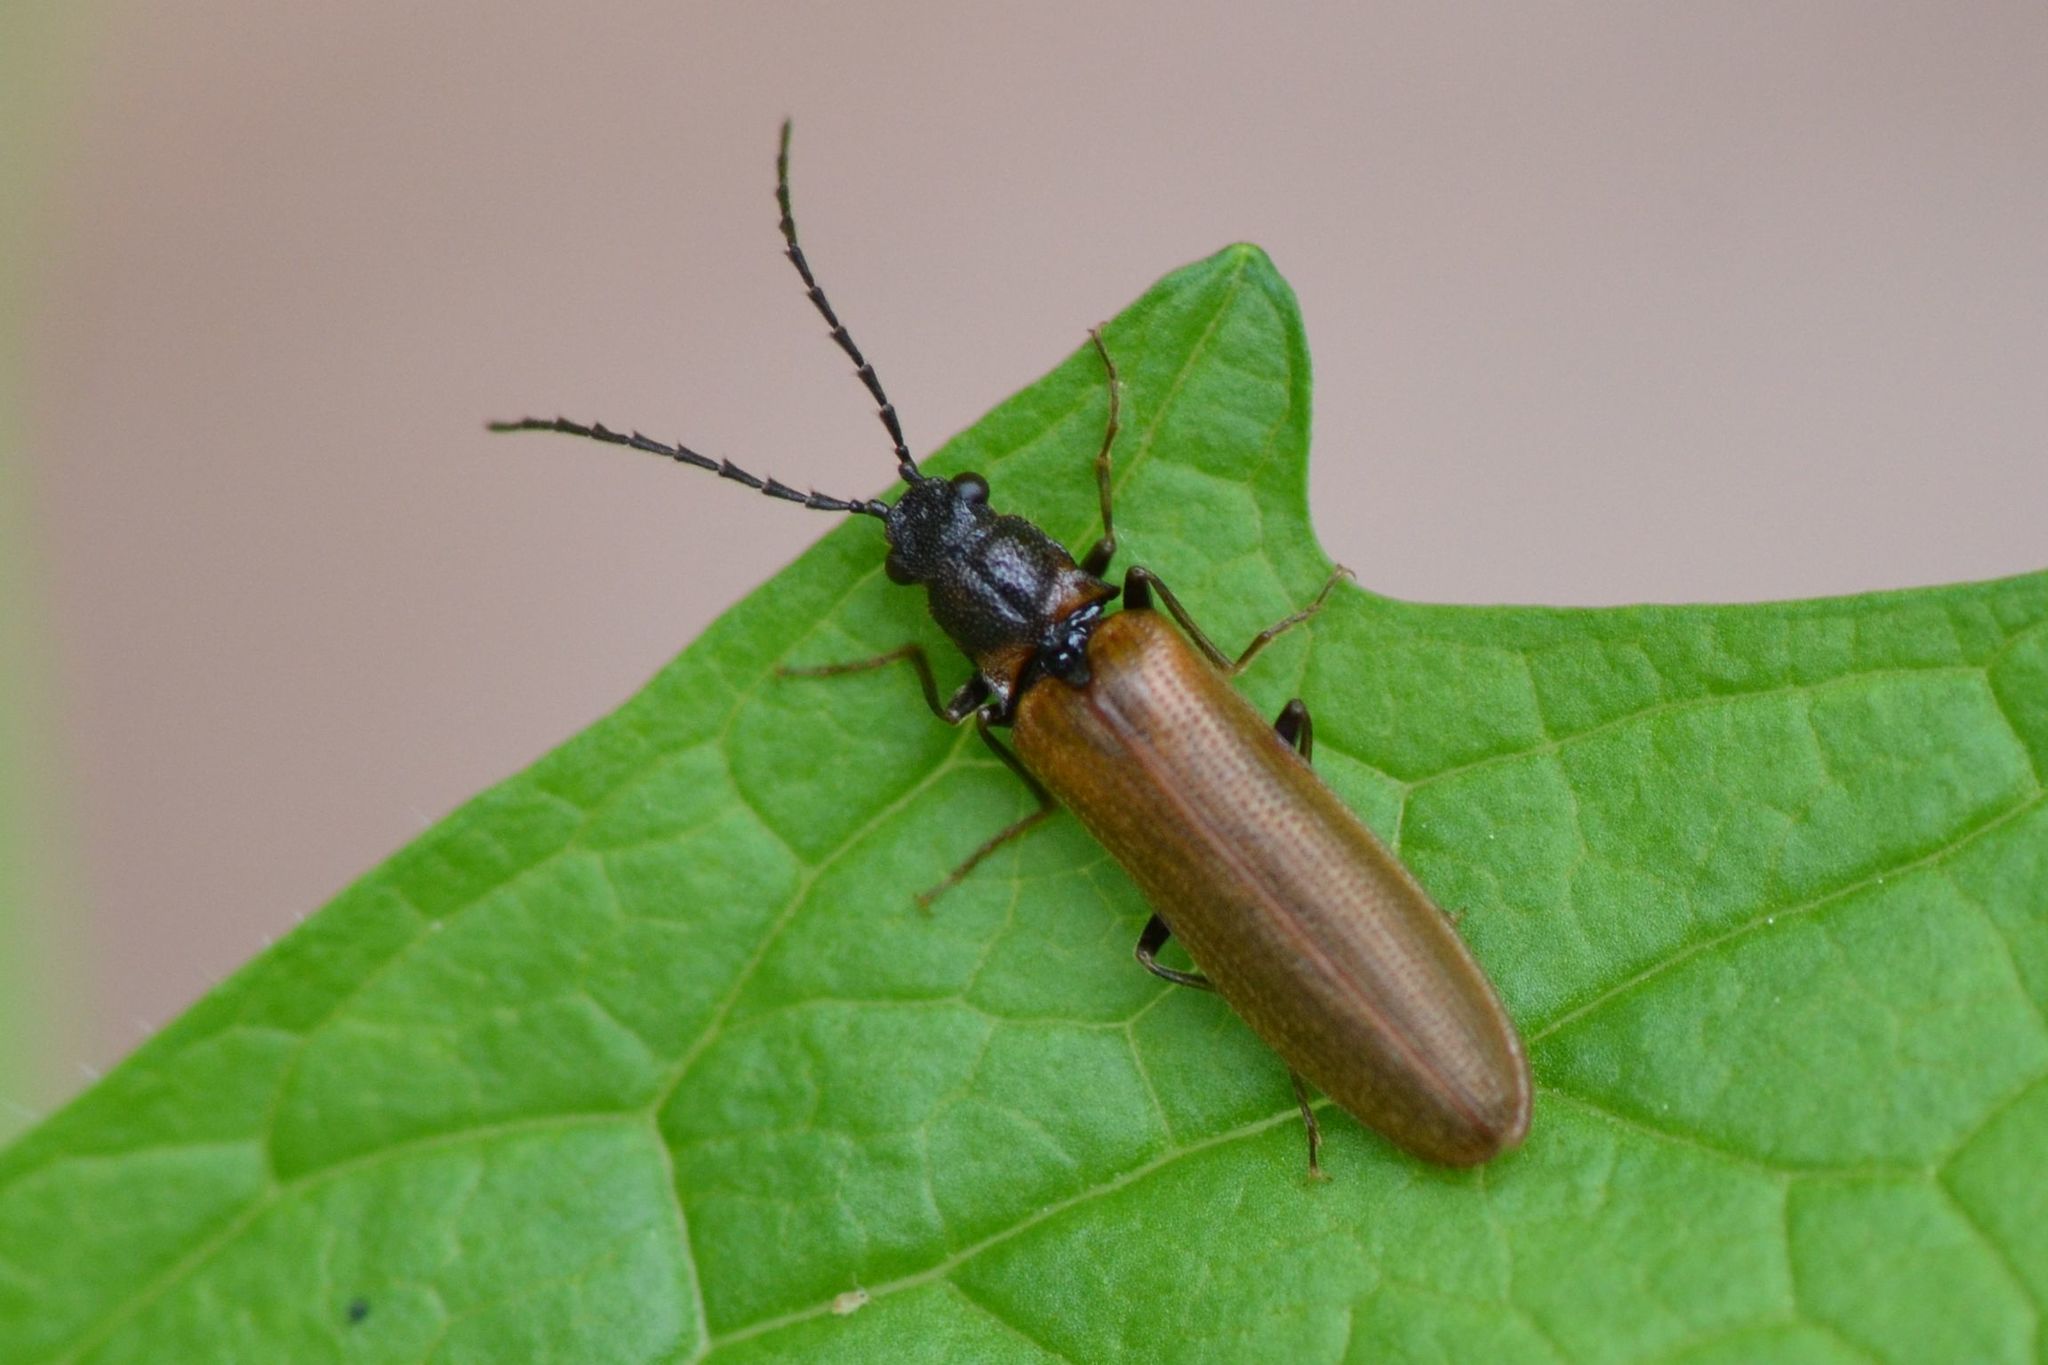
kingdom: Animalia
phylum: Arthropoda
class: Insecta
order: Coleoptera
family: Elateridae
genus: Denticollis
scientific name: Denticollis linearis
